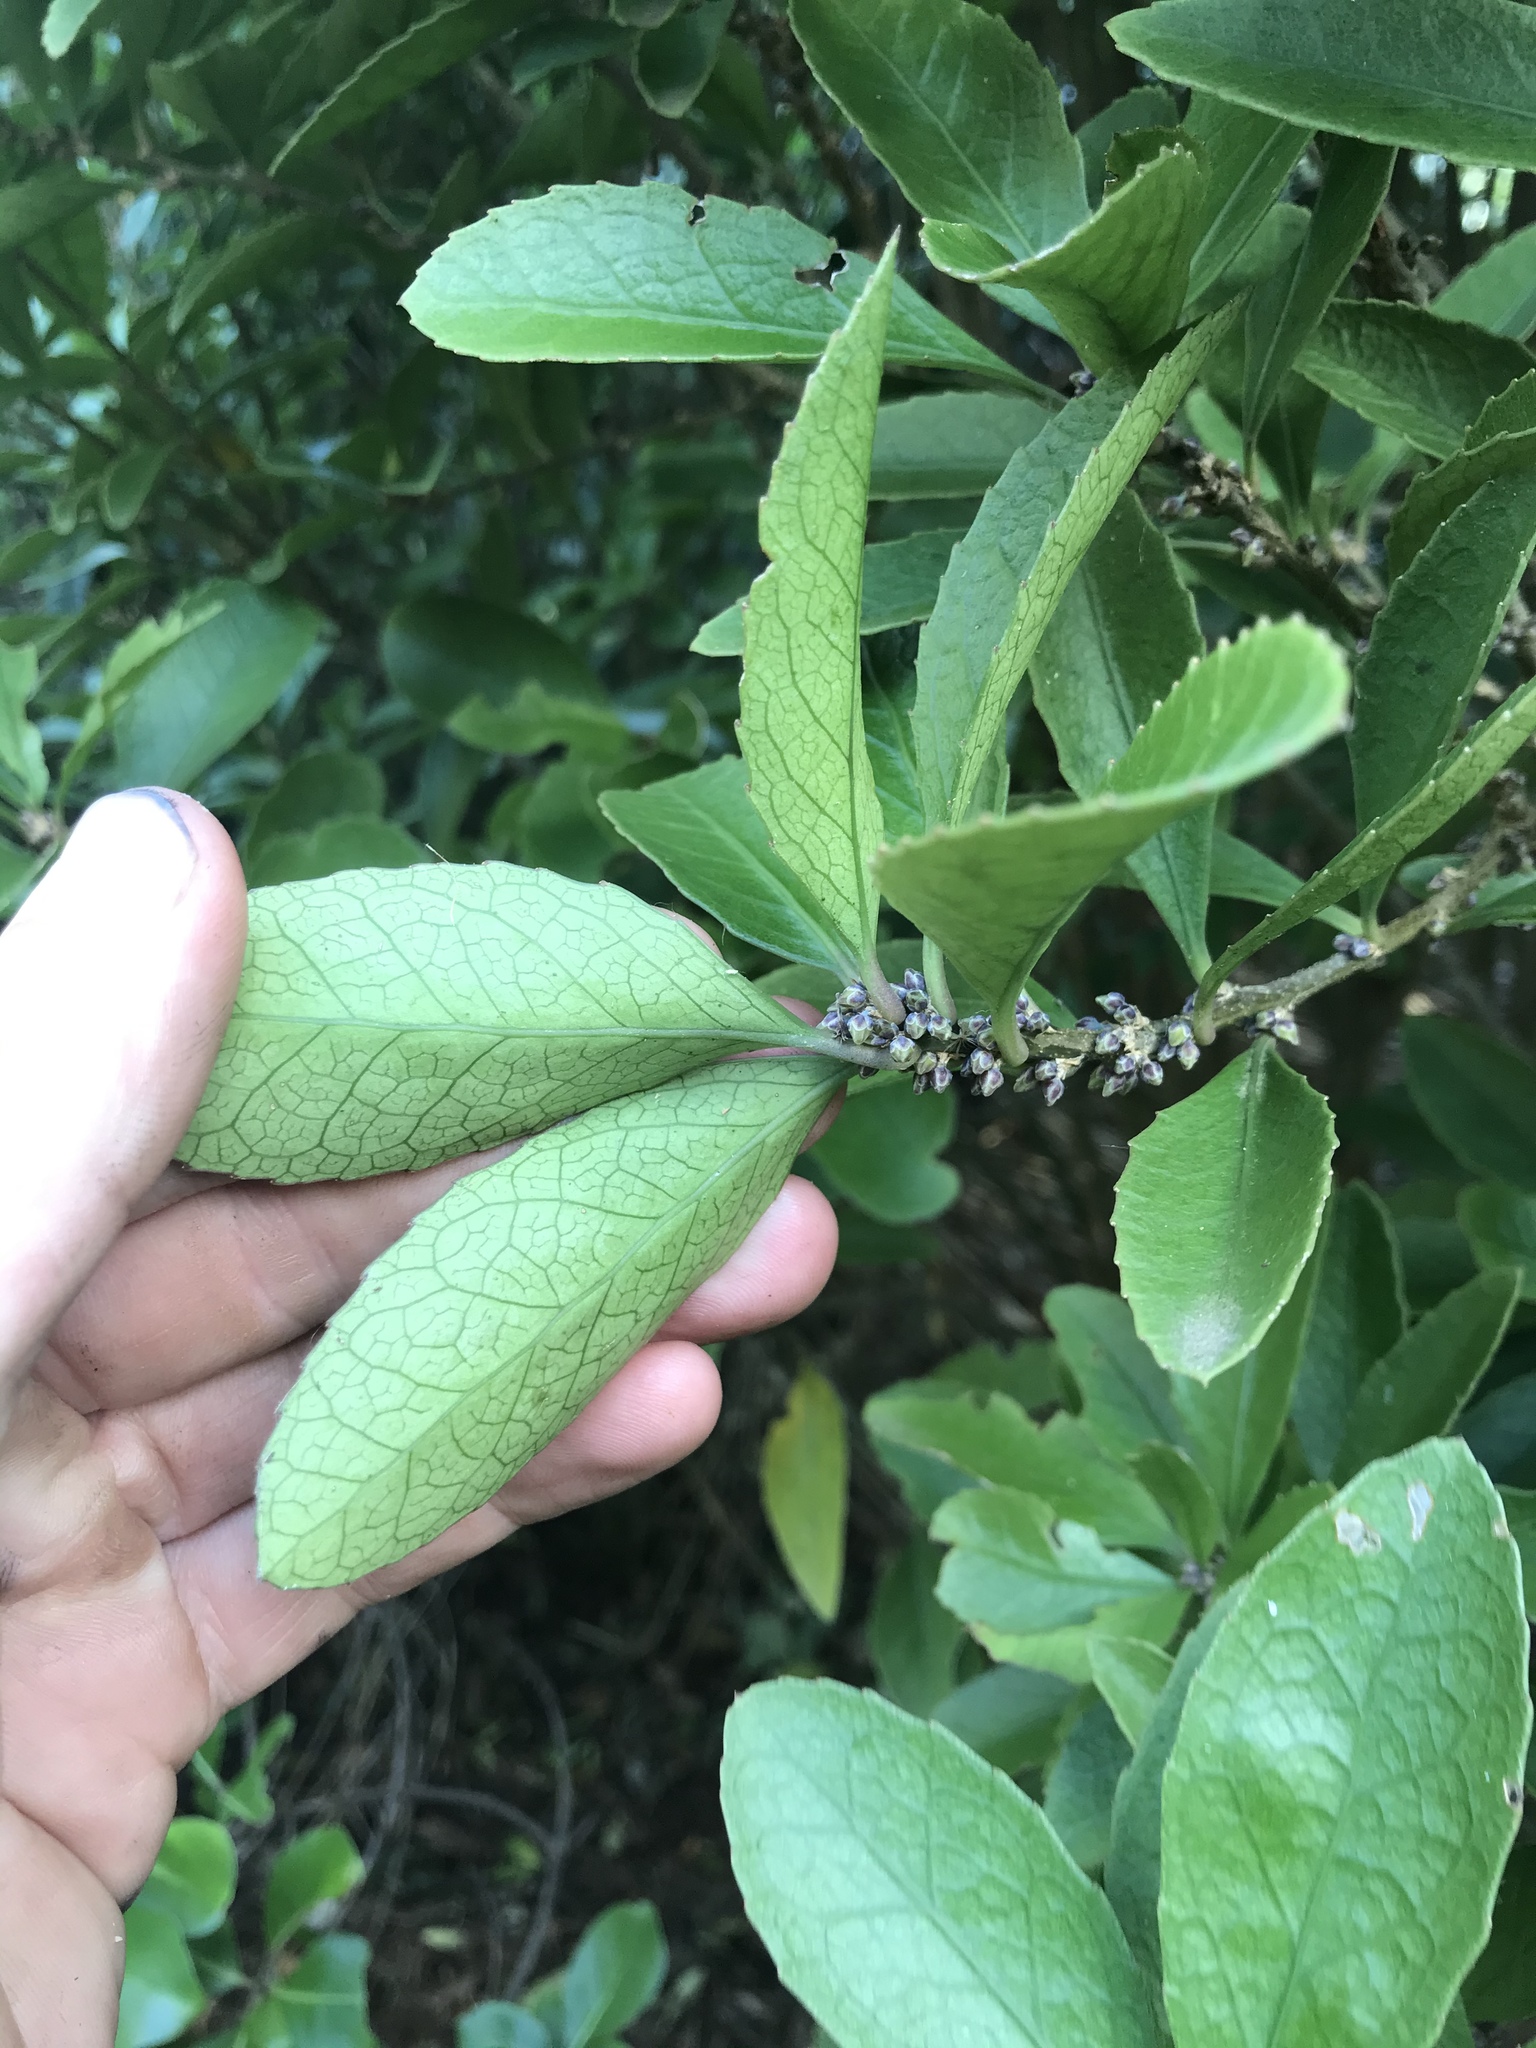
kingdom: Plantae
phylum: Tracheophyta
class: Magnoliopsida
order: Malpighiales
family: Violaceae
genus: Melicytus
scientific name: Melicytus chathamicus
